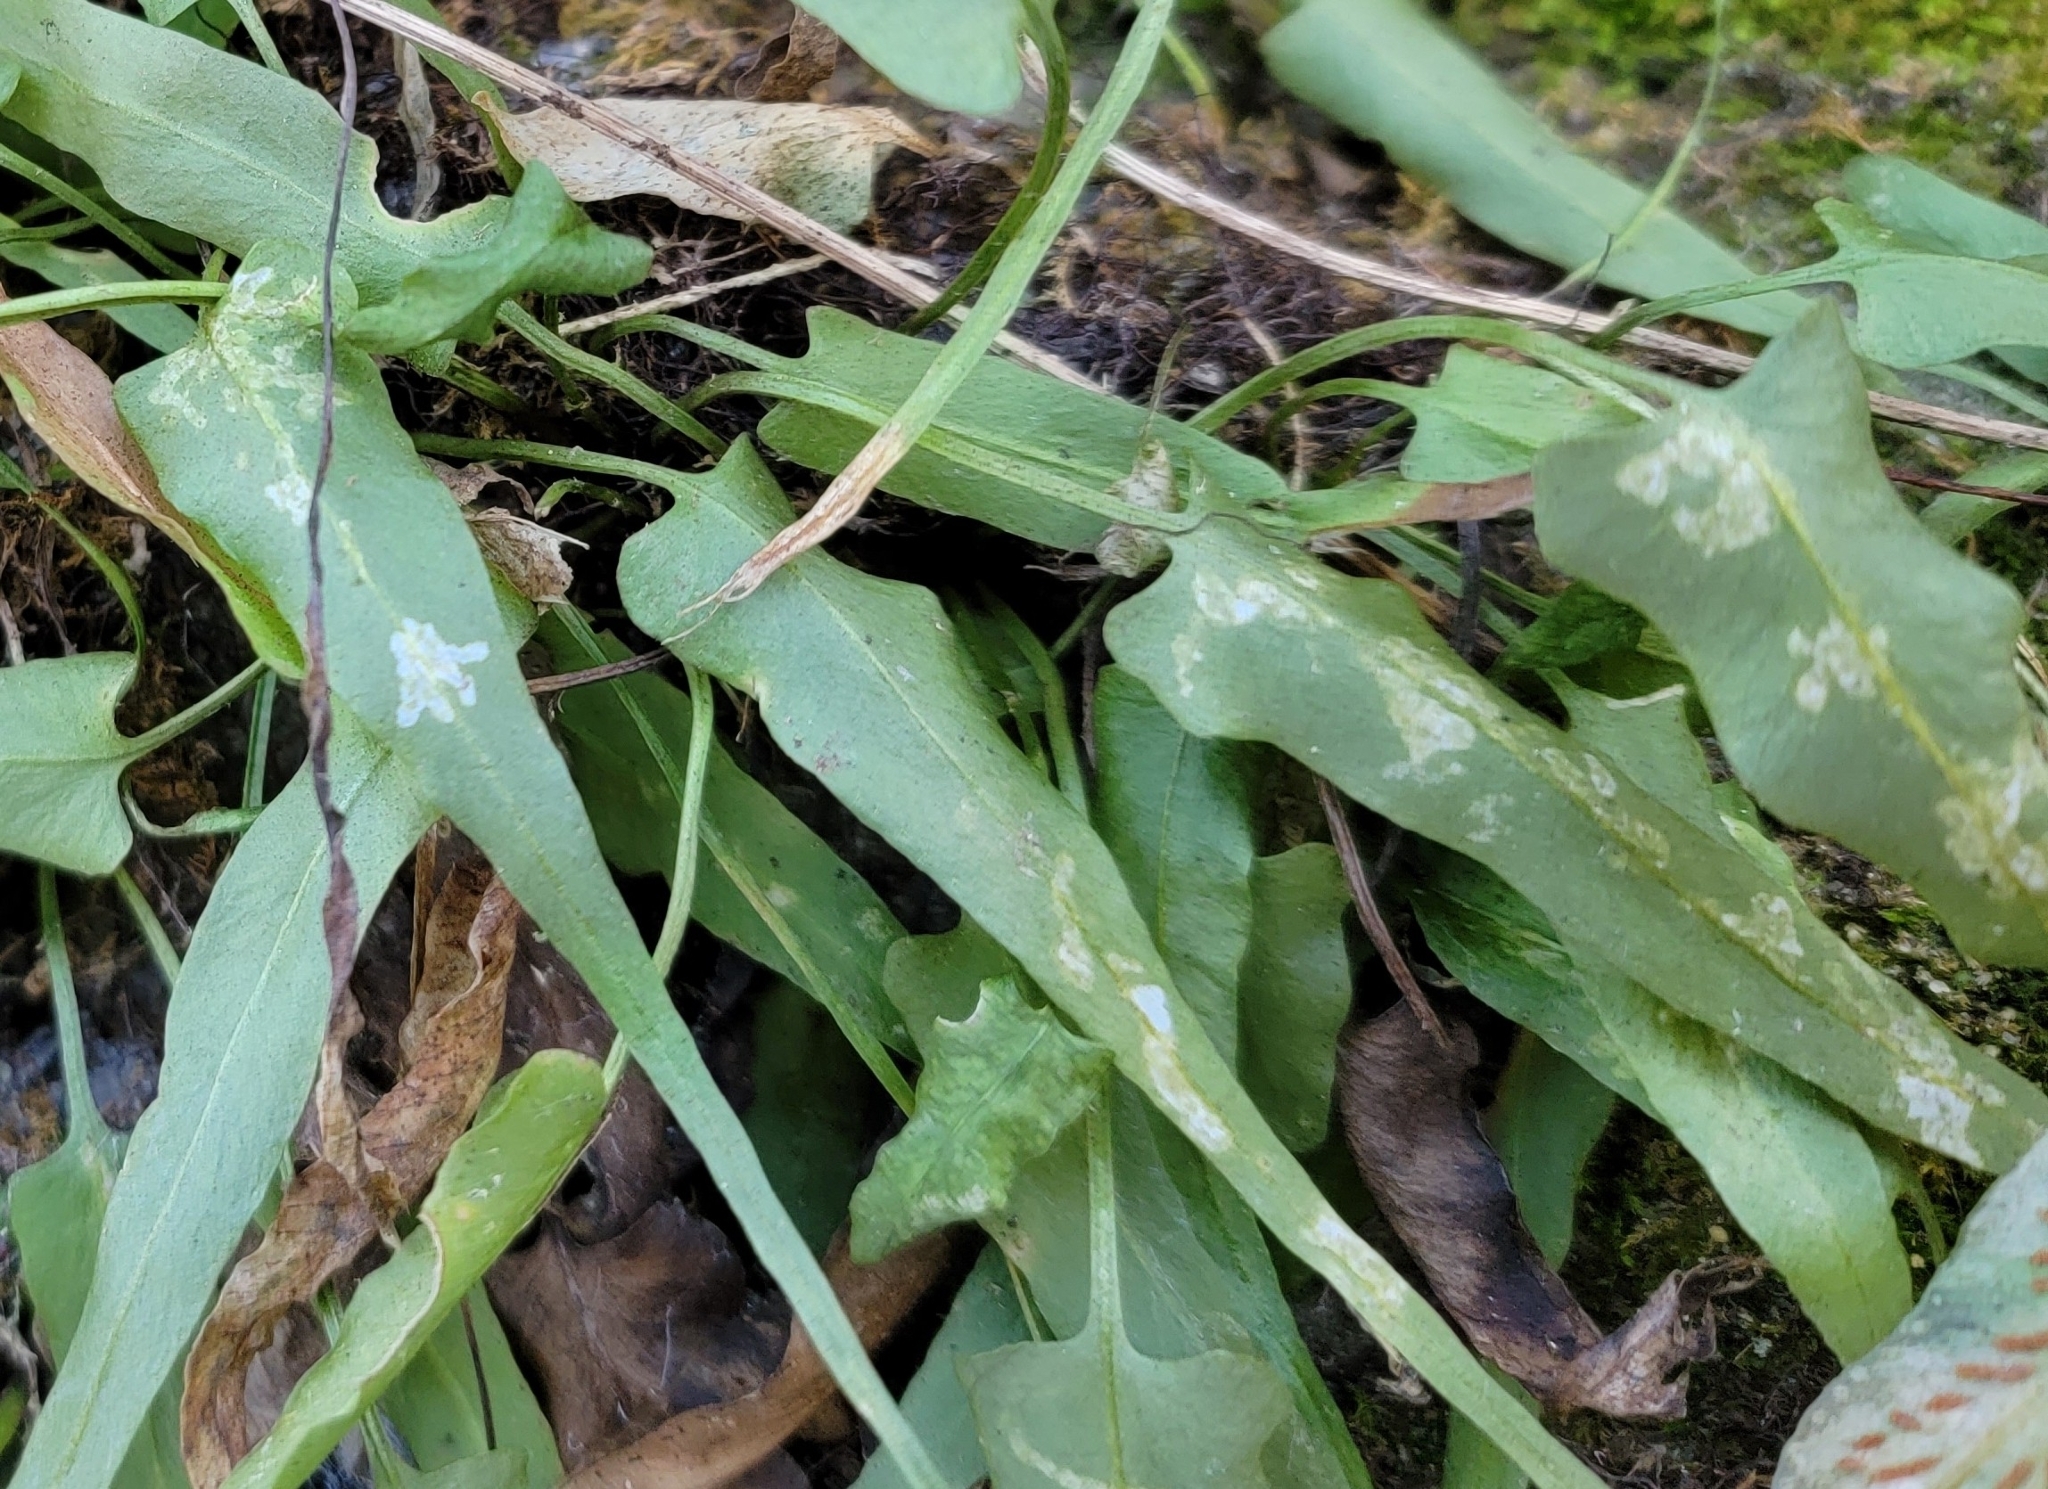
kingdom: Animalia
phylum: Arthropoda
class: Insecta
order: Diptera
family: Agromyzidae
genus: Phytoliriomyza
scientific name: Phytoliriomyza felti
